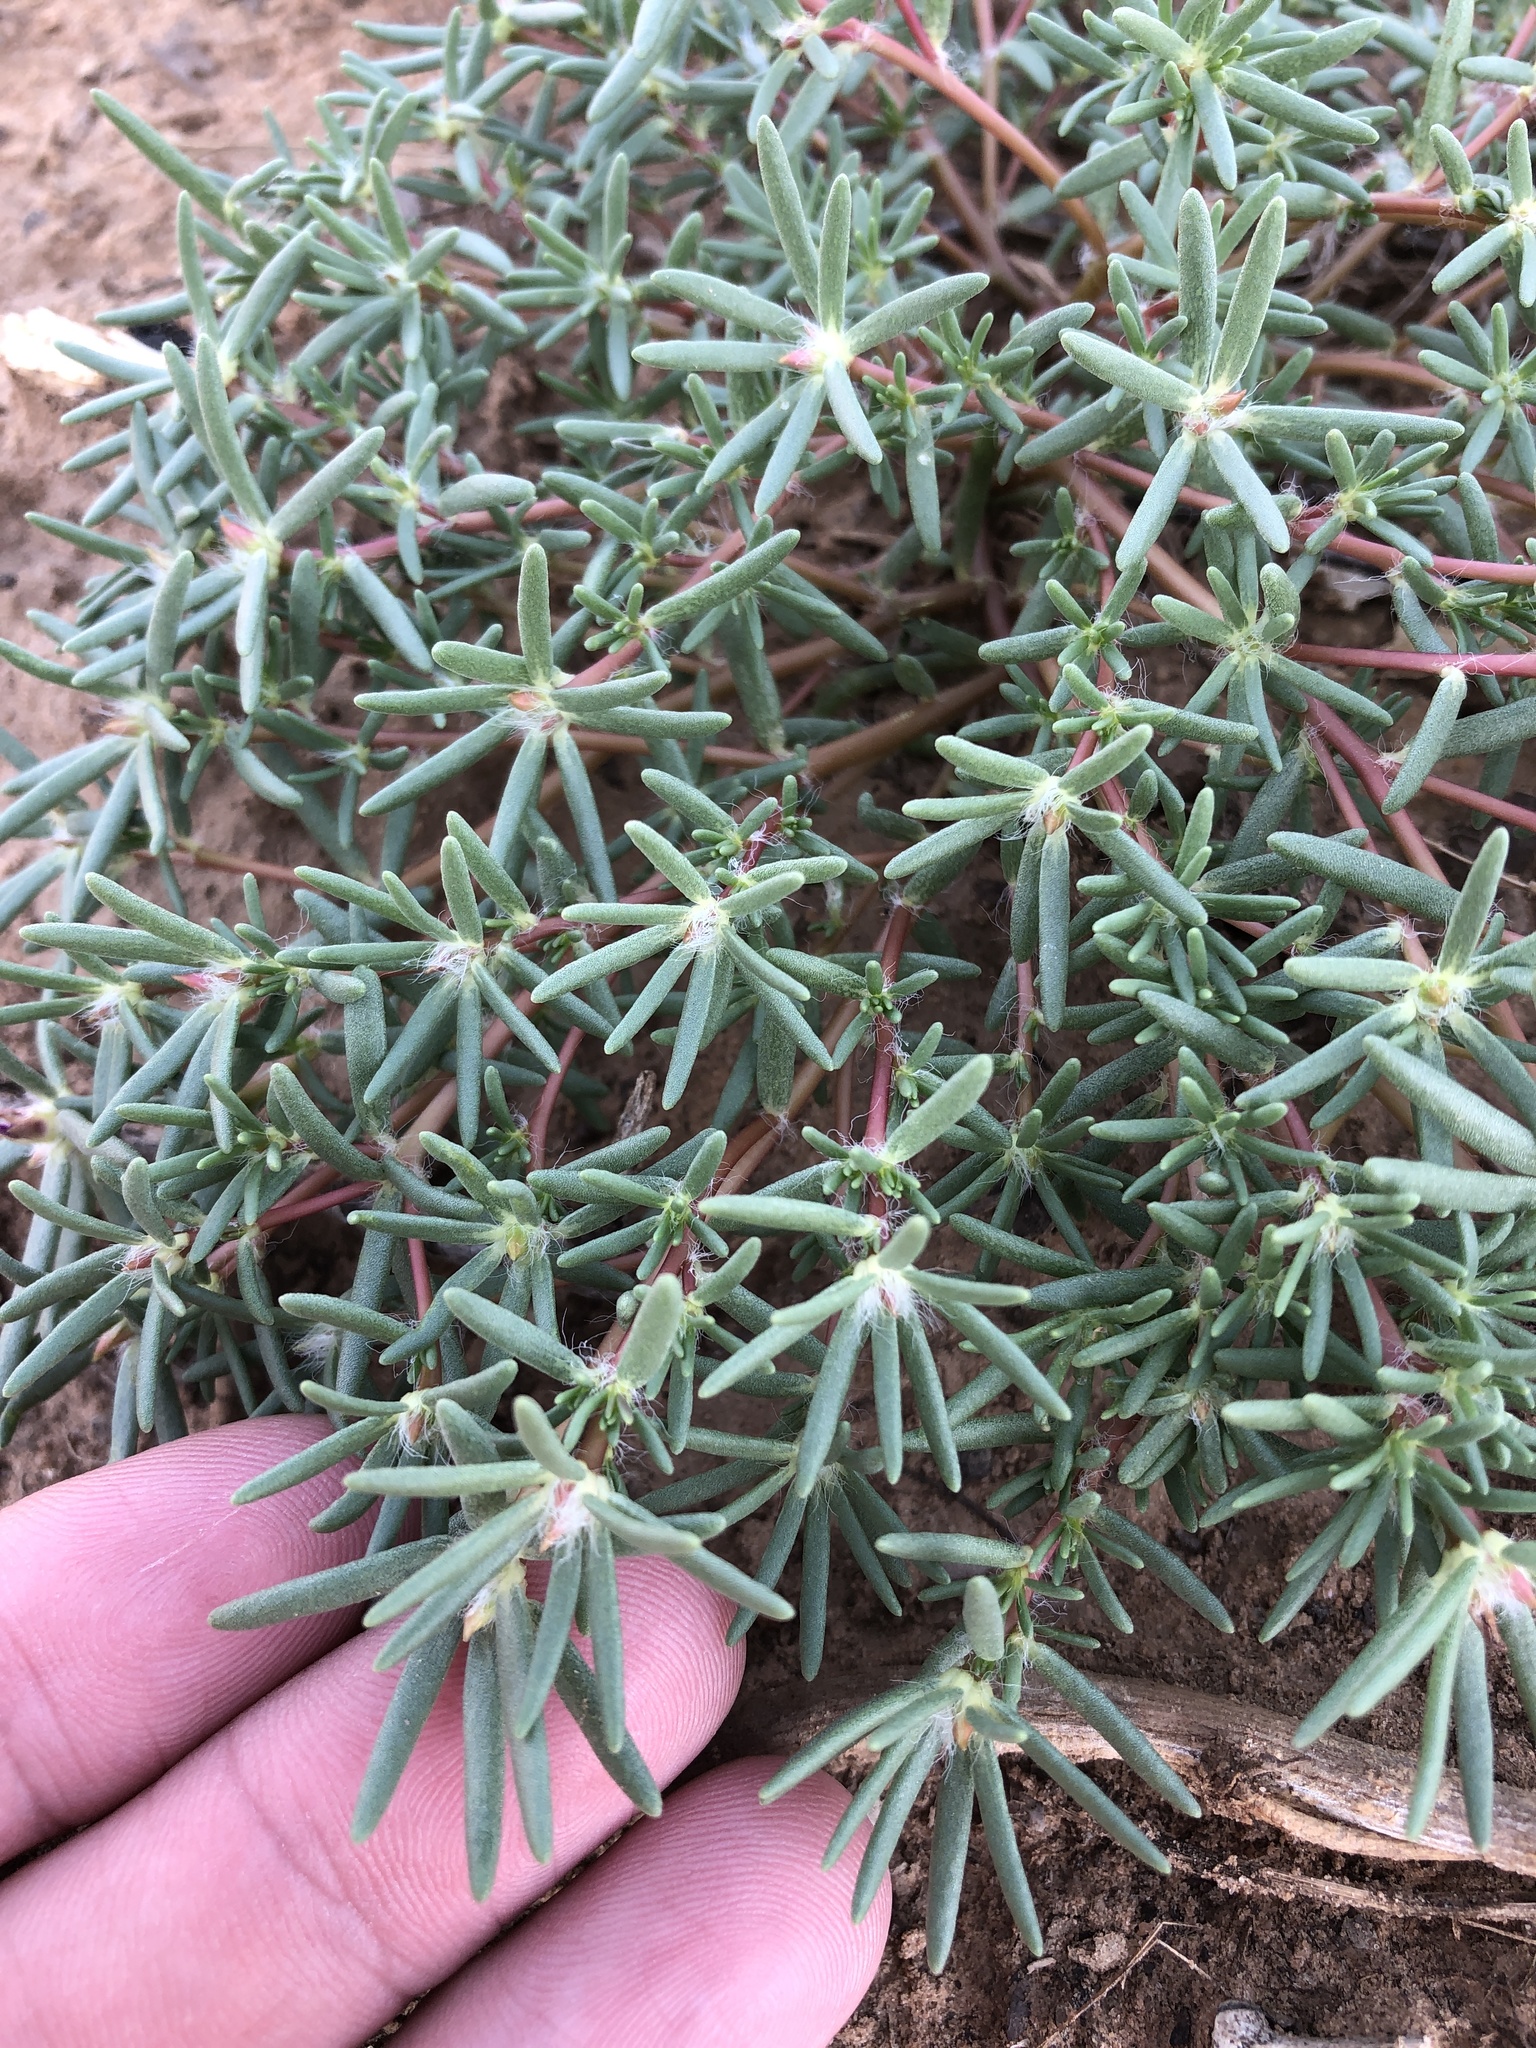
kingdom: Plantae
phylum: Tracheophyta
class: Magnoliopsida
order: Caryophyllales
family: Portulacaceae
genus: Portulaca
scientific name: Portulaca pilosa
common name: Kiss me quick
